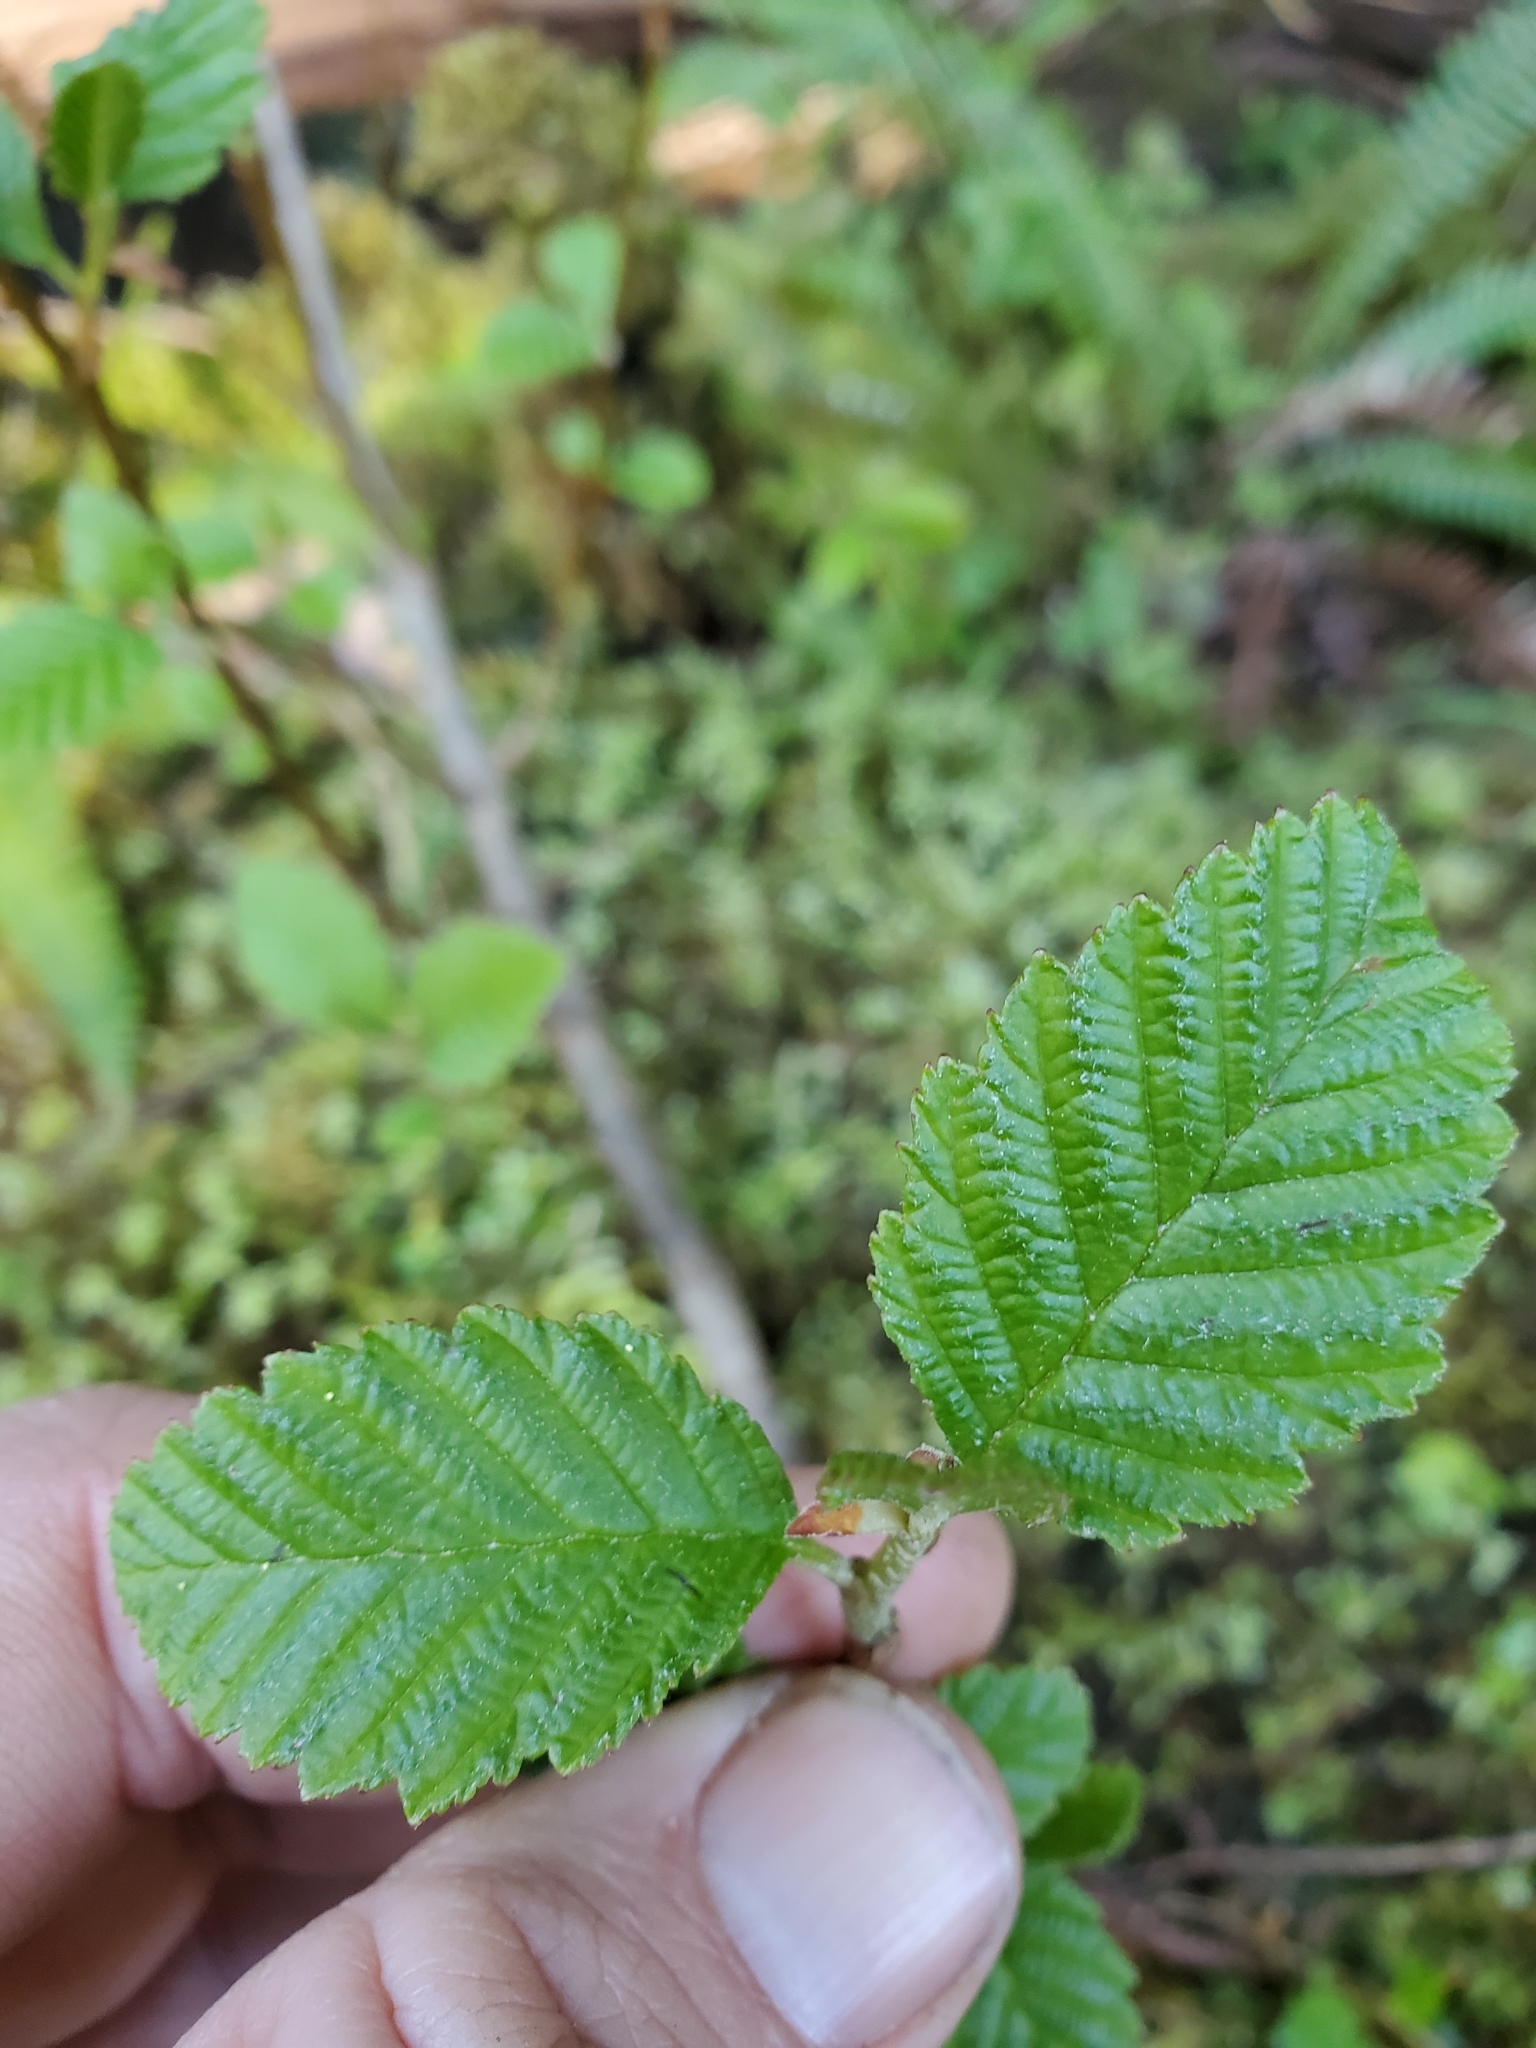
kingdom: Plantae
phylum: Tracheophyta
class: Magnoliopsida
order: Fagales
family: Betulaceae
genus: Alnus
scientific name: Alnus rubra
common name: Red alder
